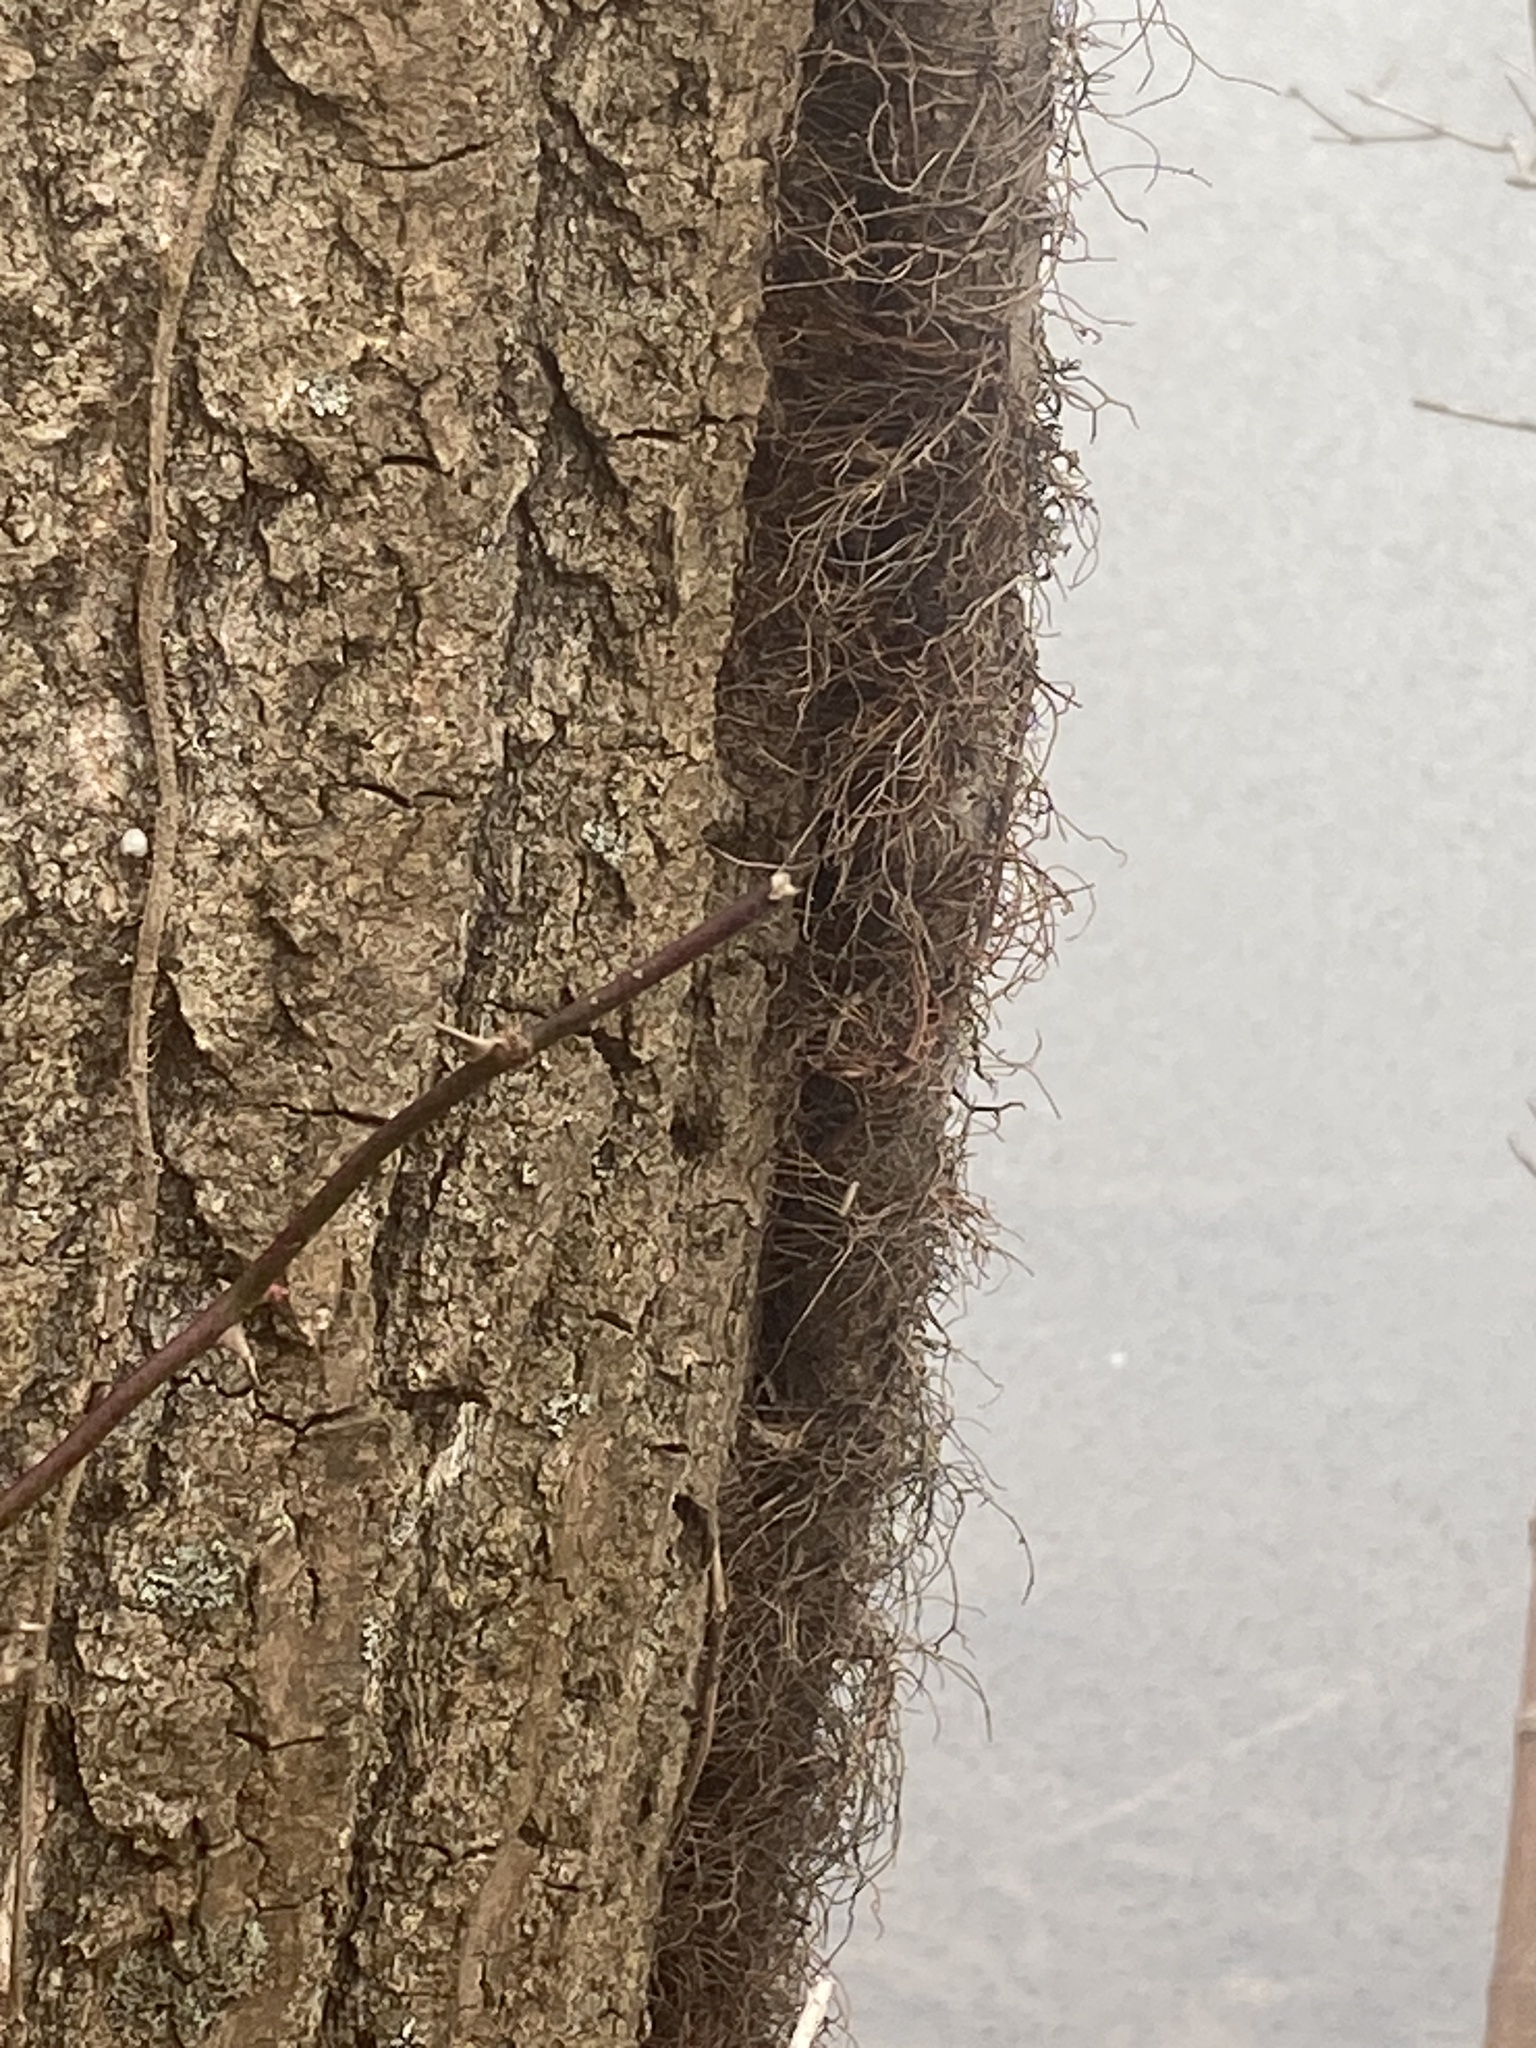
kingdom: Plantae
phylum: Tracheophyta
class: Magnoliopsida
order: Sapindales
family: Anacardiaceae
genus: Toxicodendron
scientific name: Toxicodendron radicans
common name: Poison ivy
